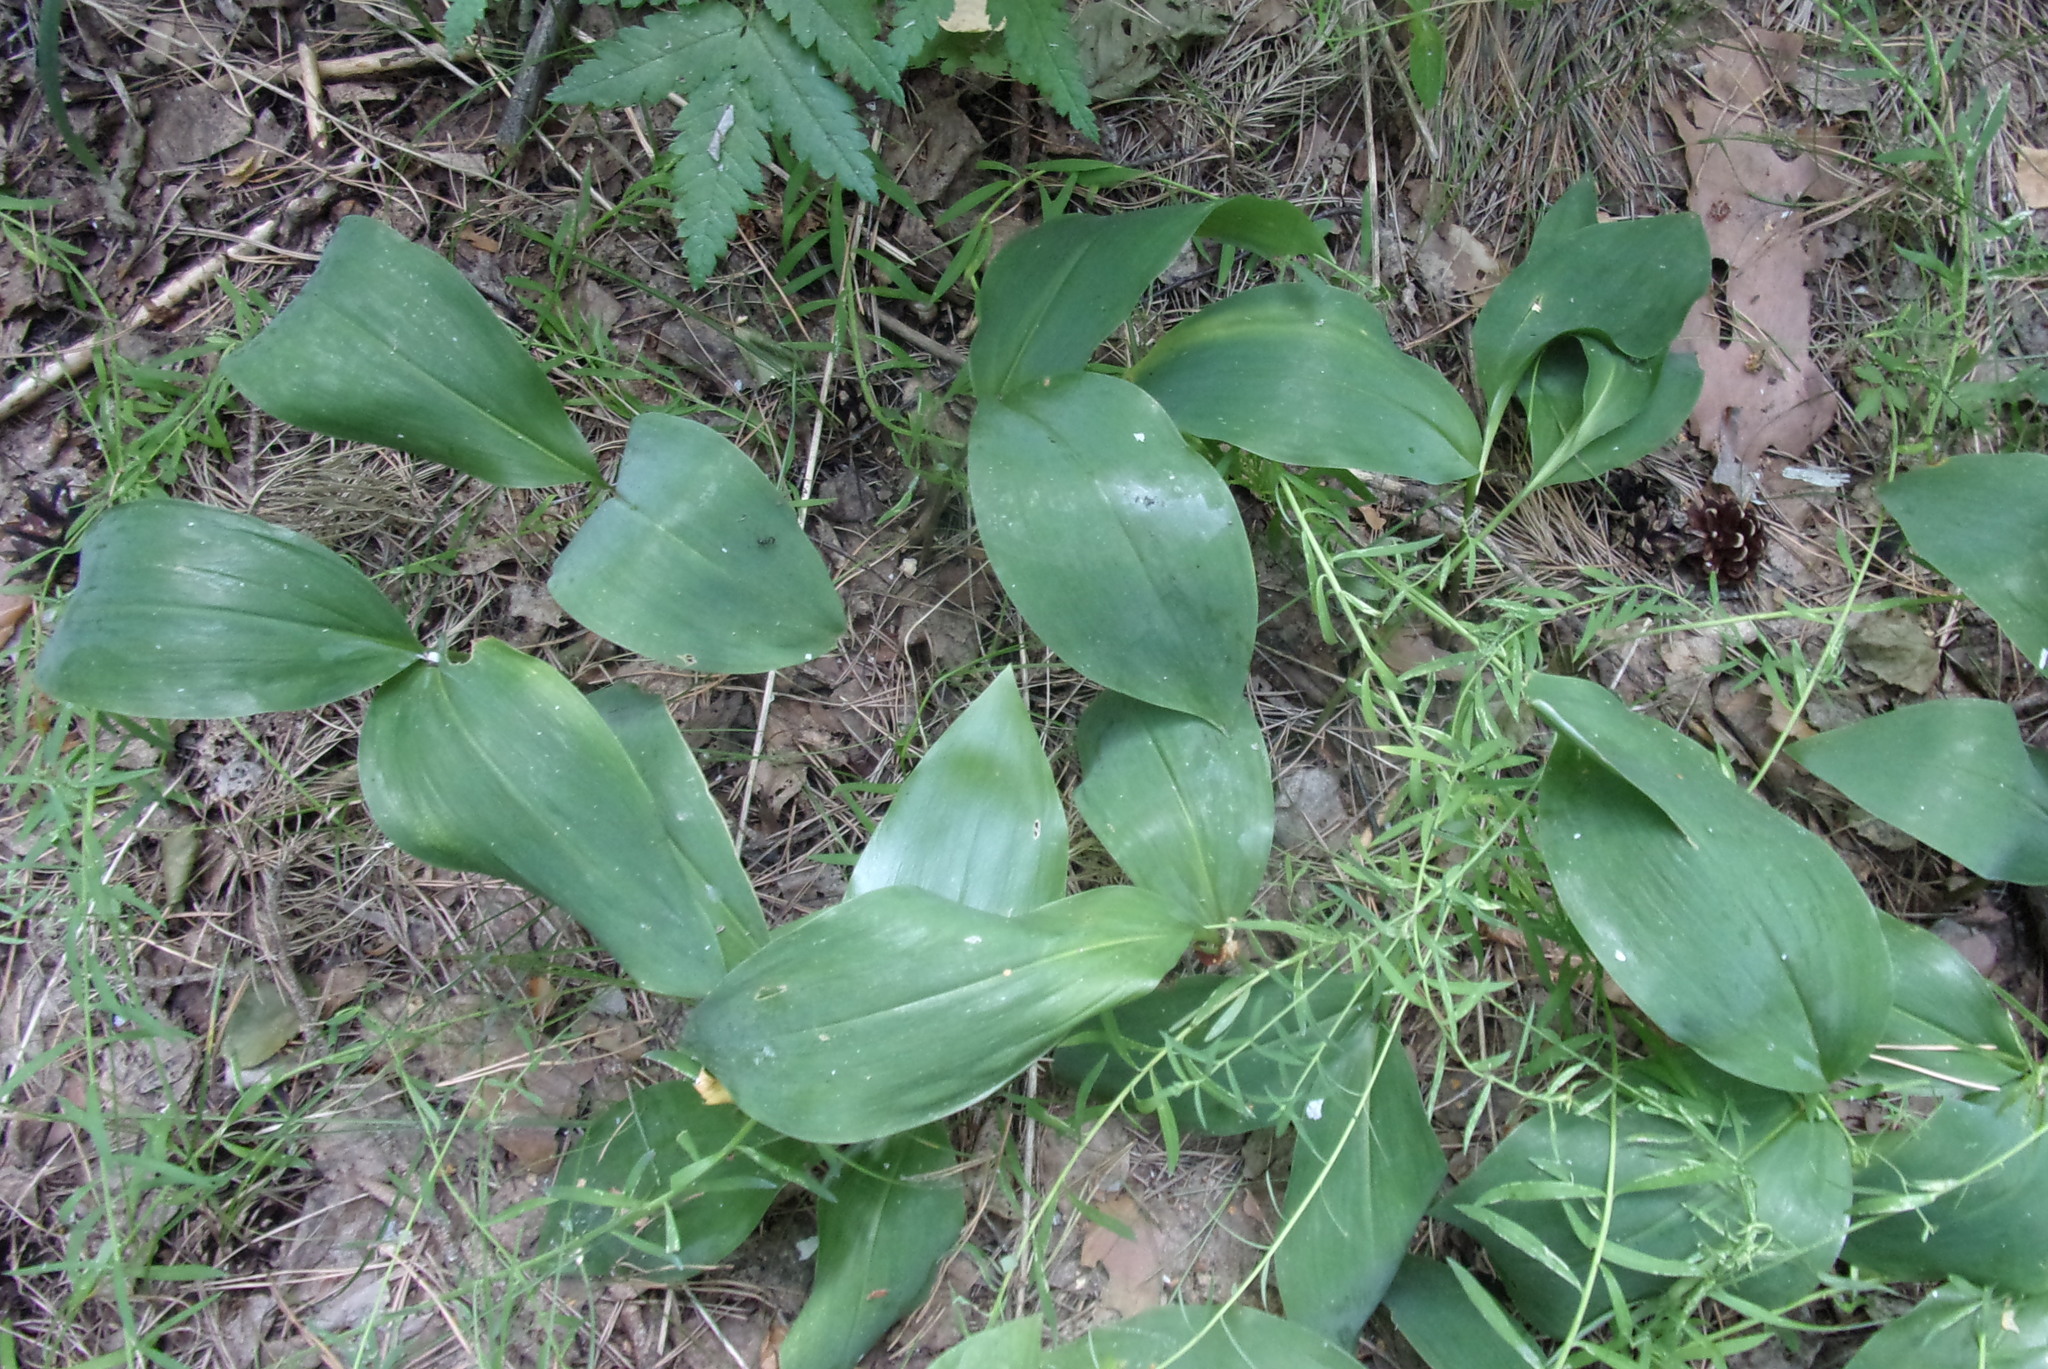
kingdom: Plantae
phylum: Tracheophyta
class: Liliopsida
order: Asparagales
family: Asparagaceae
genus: Convallaria
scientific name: Convallaria majalis
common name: Lily-of-the-valley
